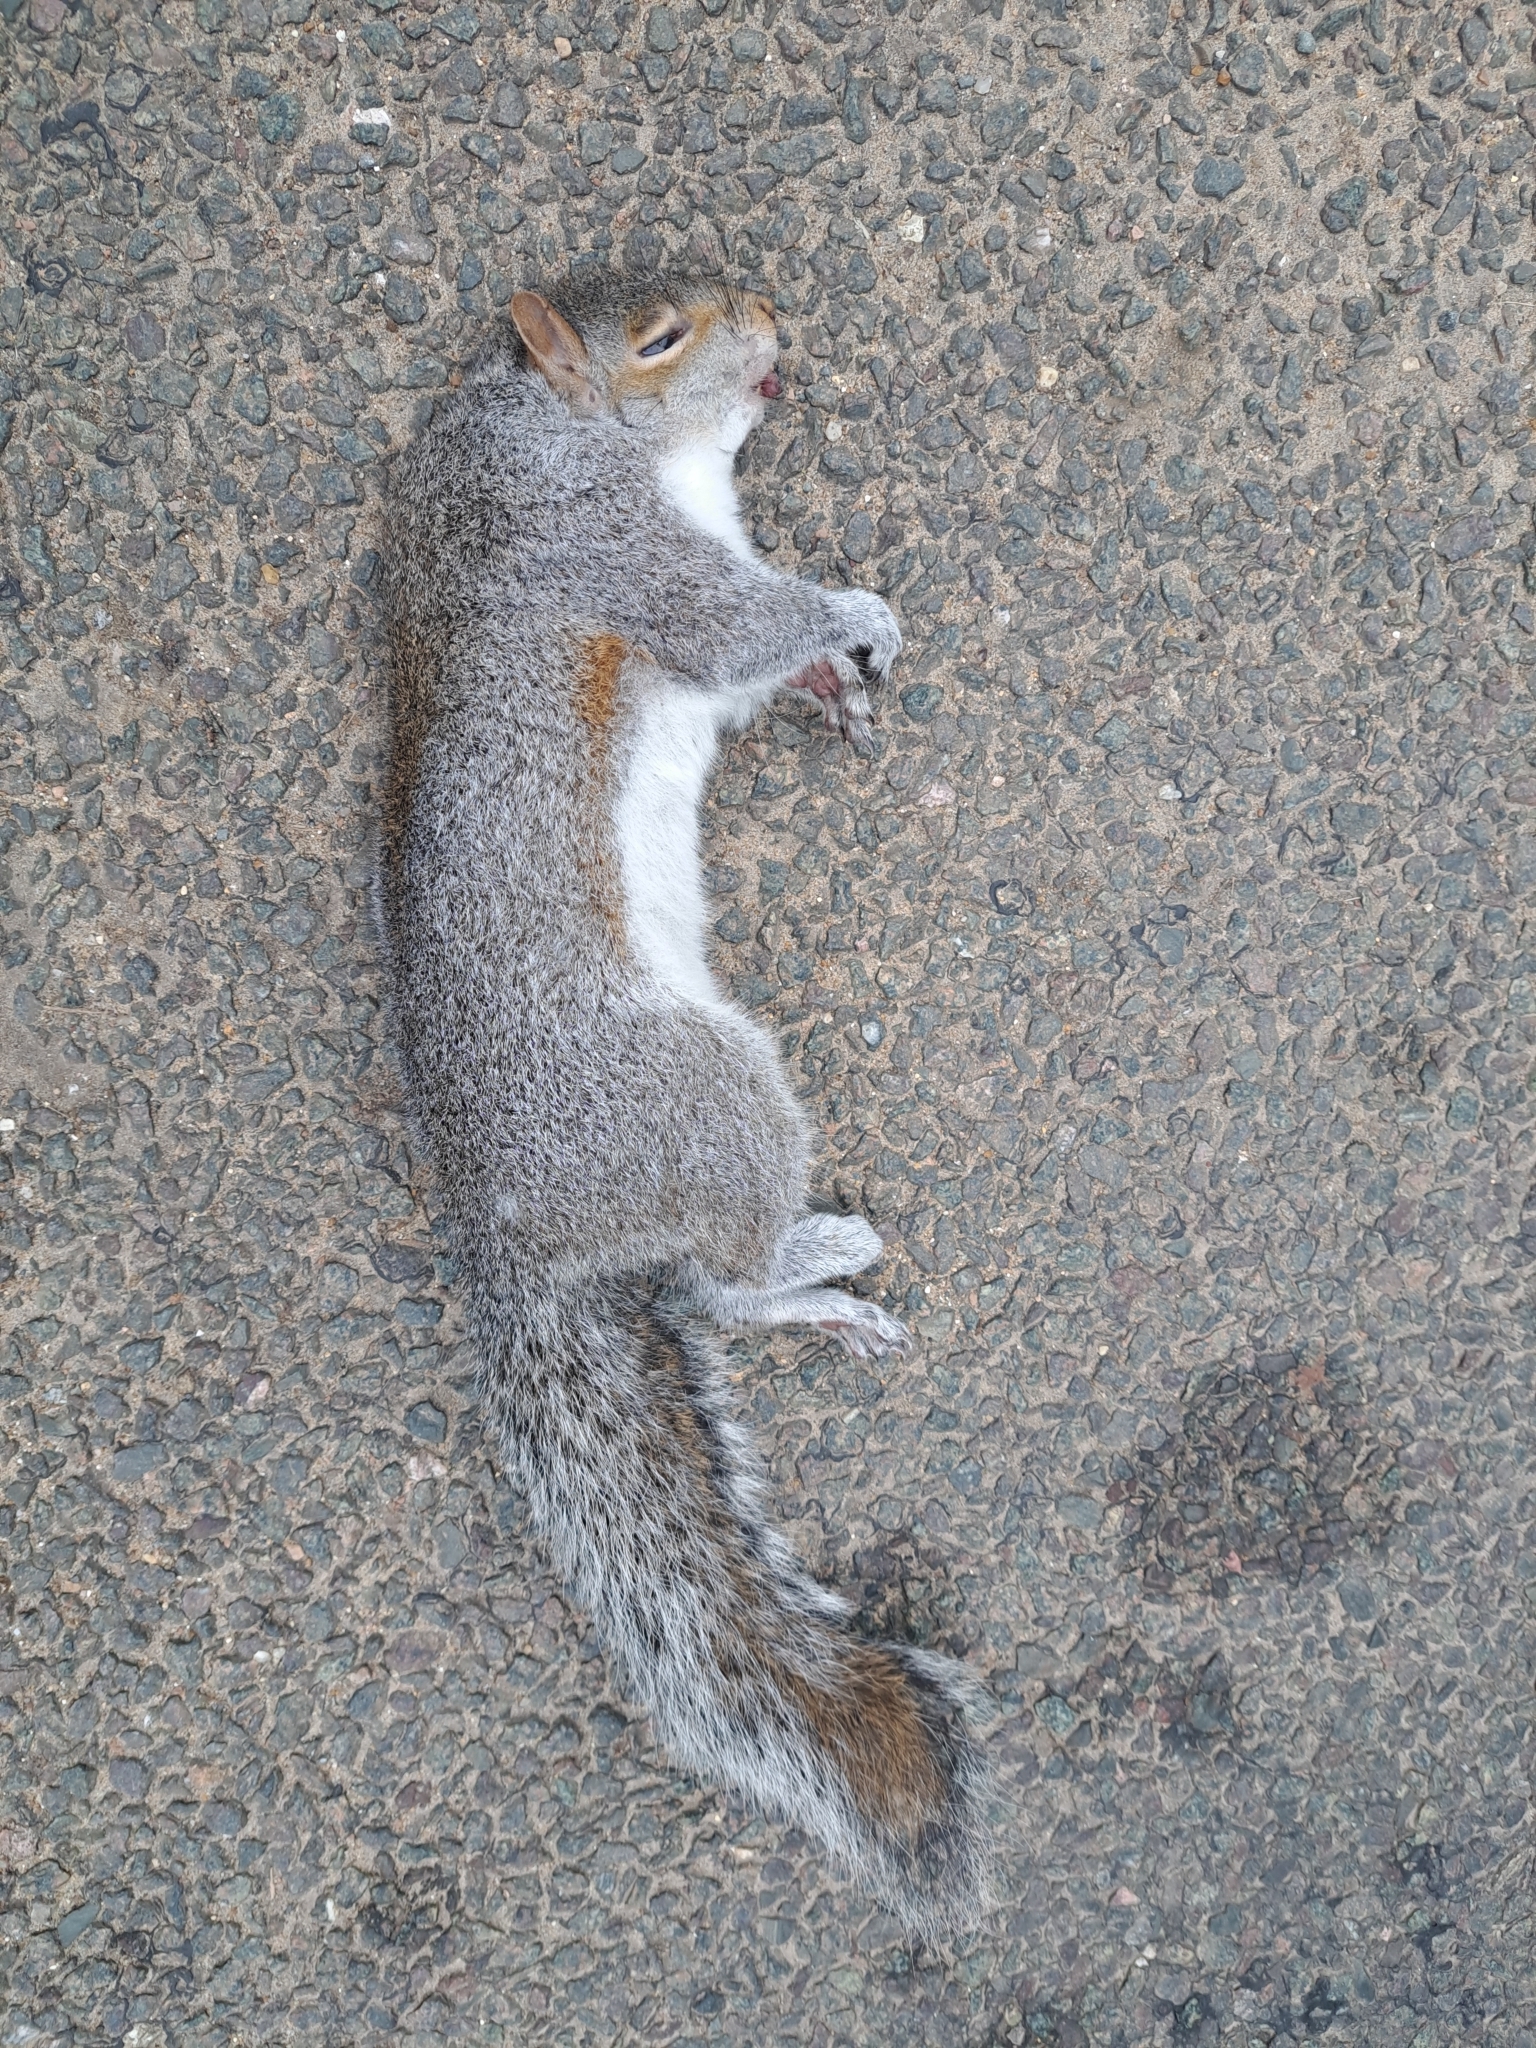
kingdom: Animalia
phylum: Chordata
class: Mammalia
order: Rodentia
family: Sciuridae
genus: Sciurus
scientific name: Sciurus carolinensis
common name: Eastern gray squirrel
